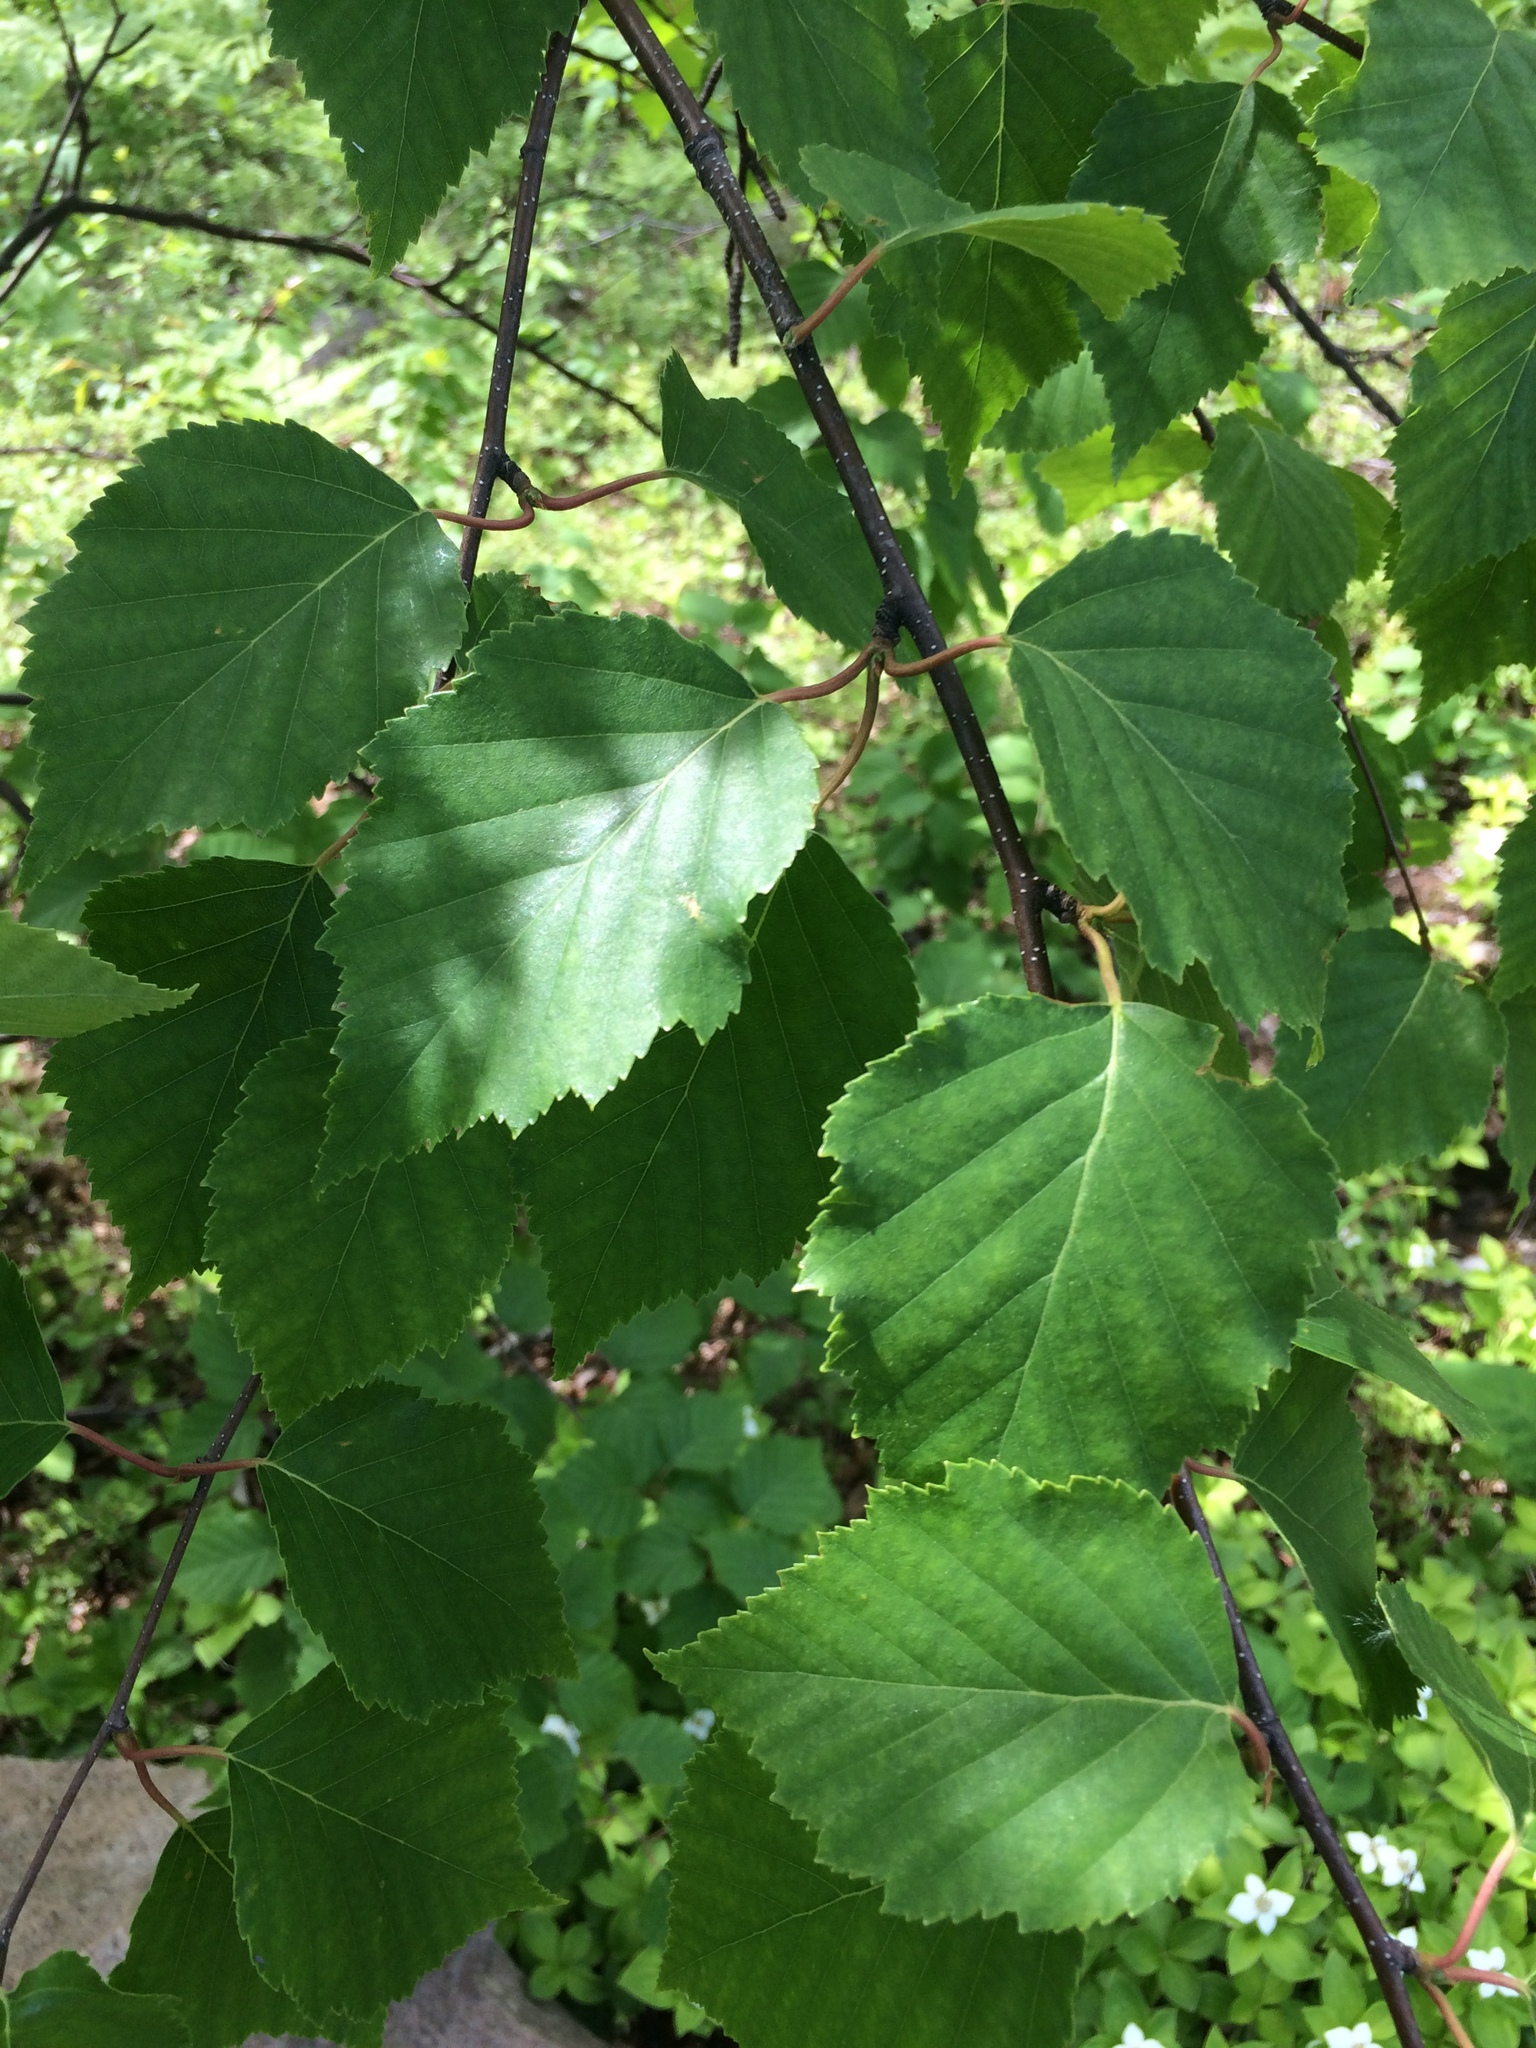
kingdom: Plantae
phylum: Tracheophyta
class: Magnoliopsida
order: Fagales
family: Betulaceae
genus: Betula
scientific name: Betula papyrifera
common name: Paper birch
